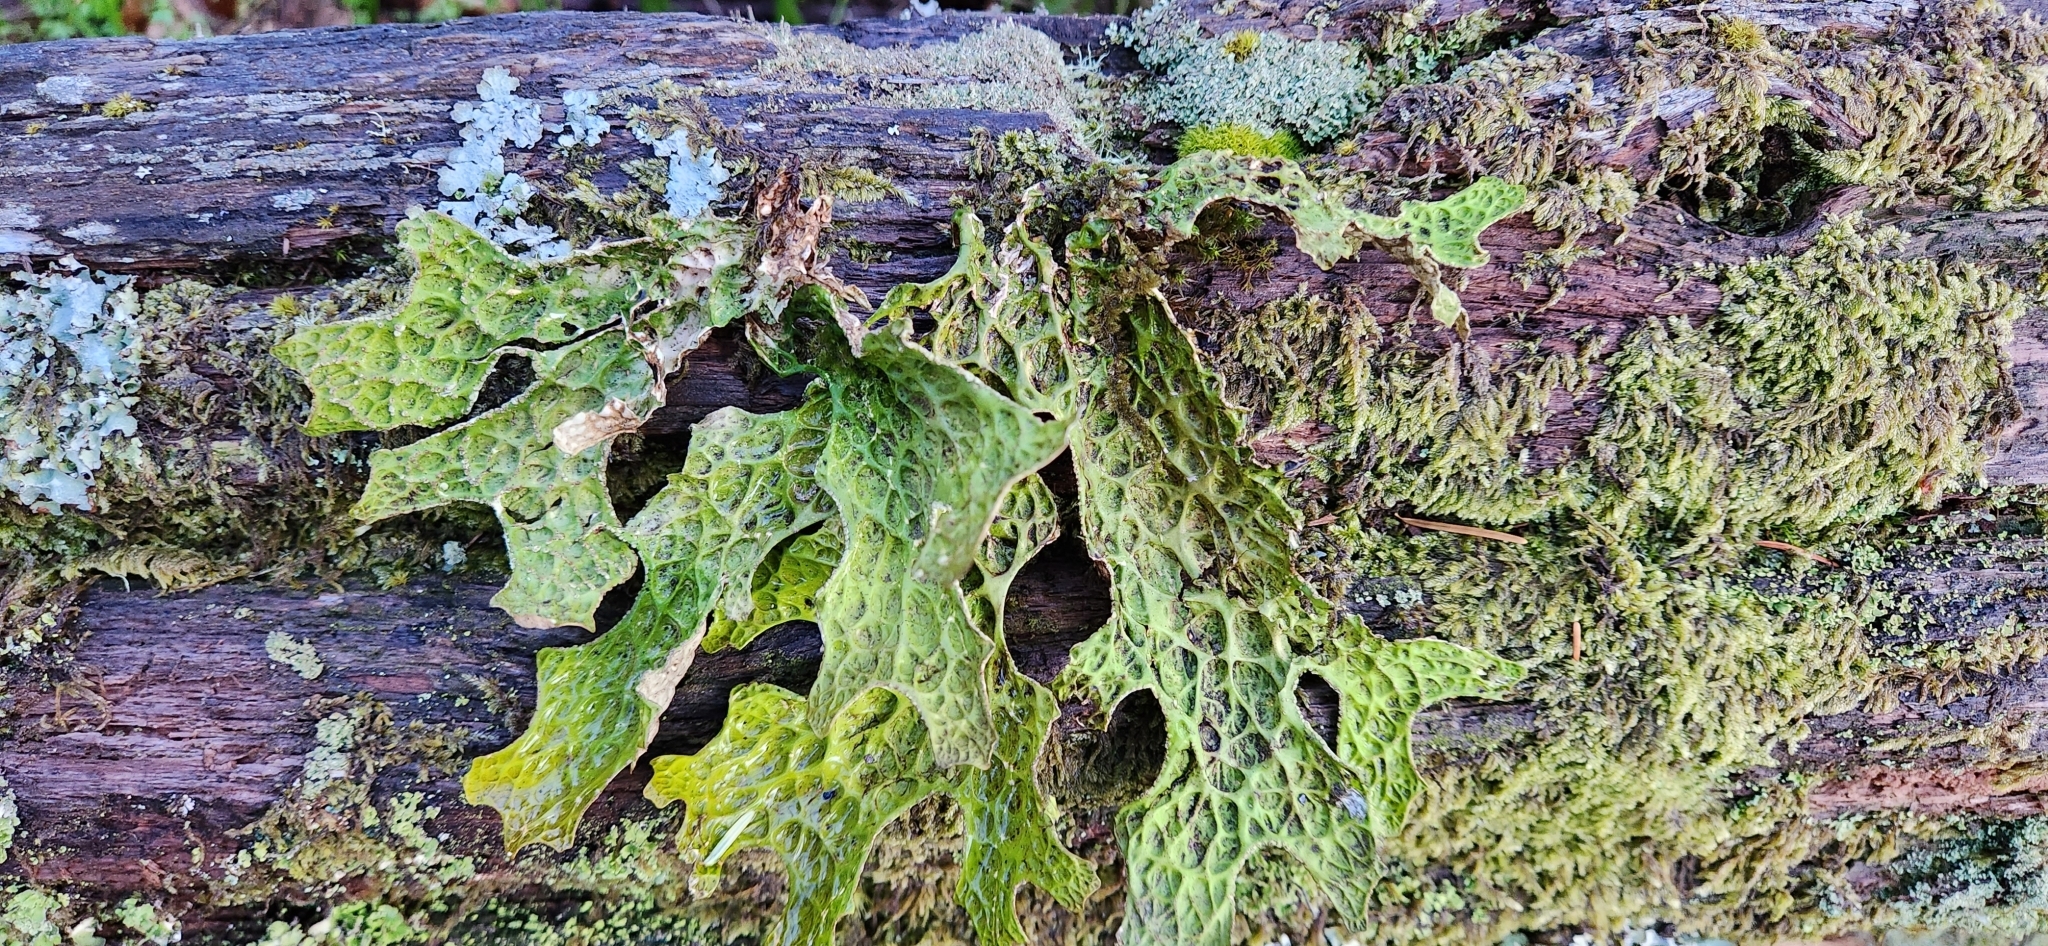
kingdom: Fungi
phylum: Ascomycota
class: Lecanoromycetes
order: Peltigerales
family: Lobariaceae
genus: Lobaria
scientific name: Lobaria pulmonaria
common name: Lungwort
